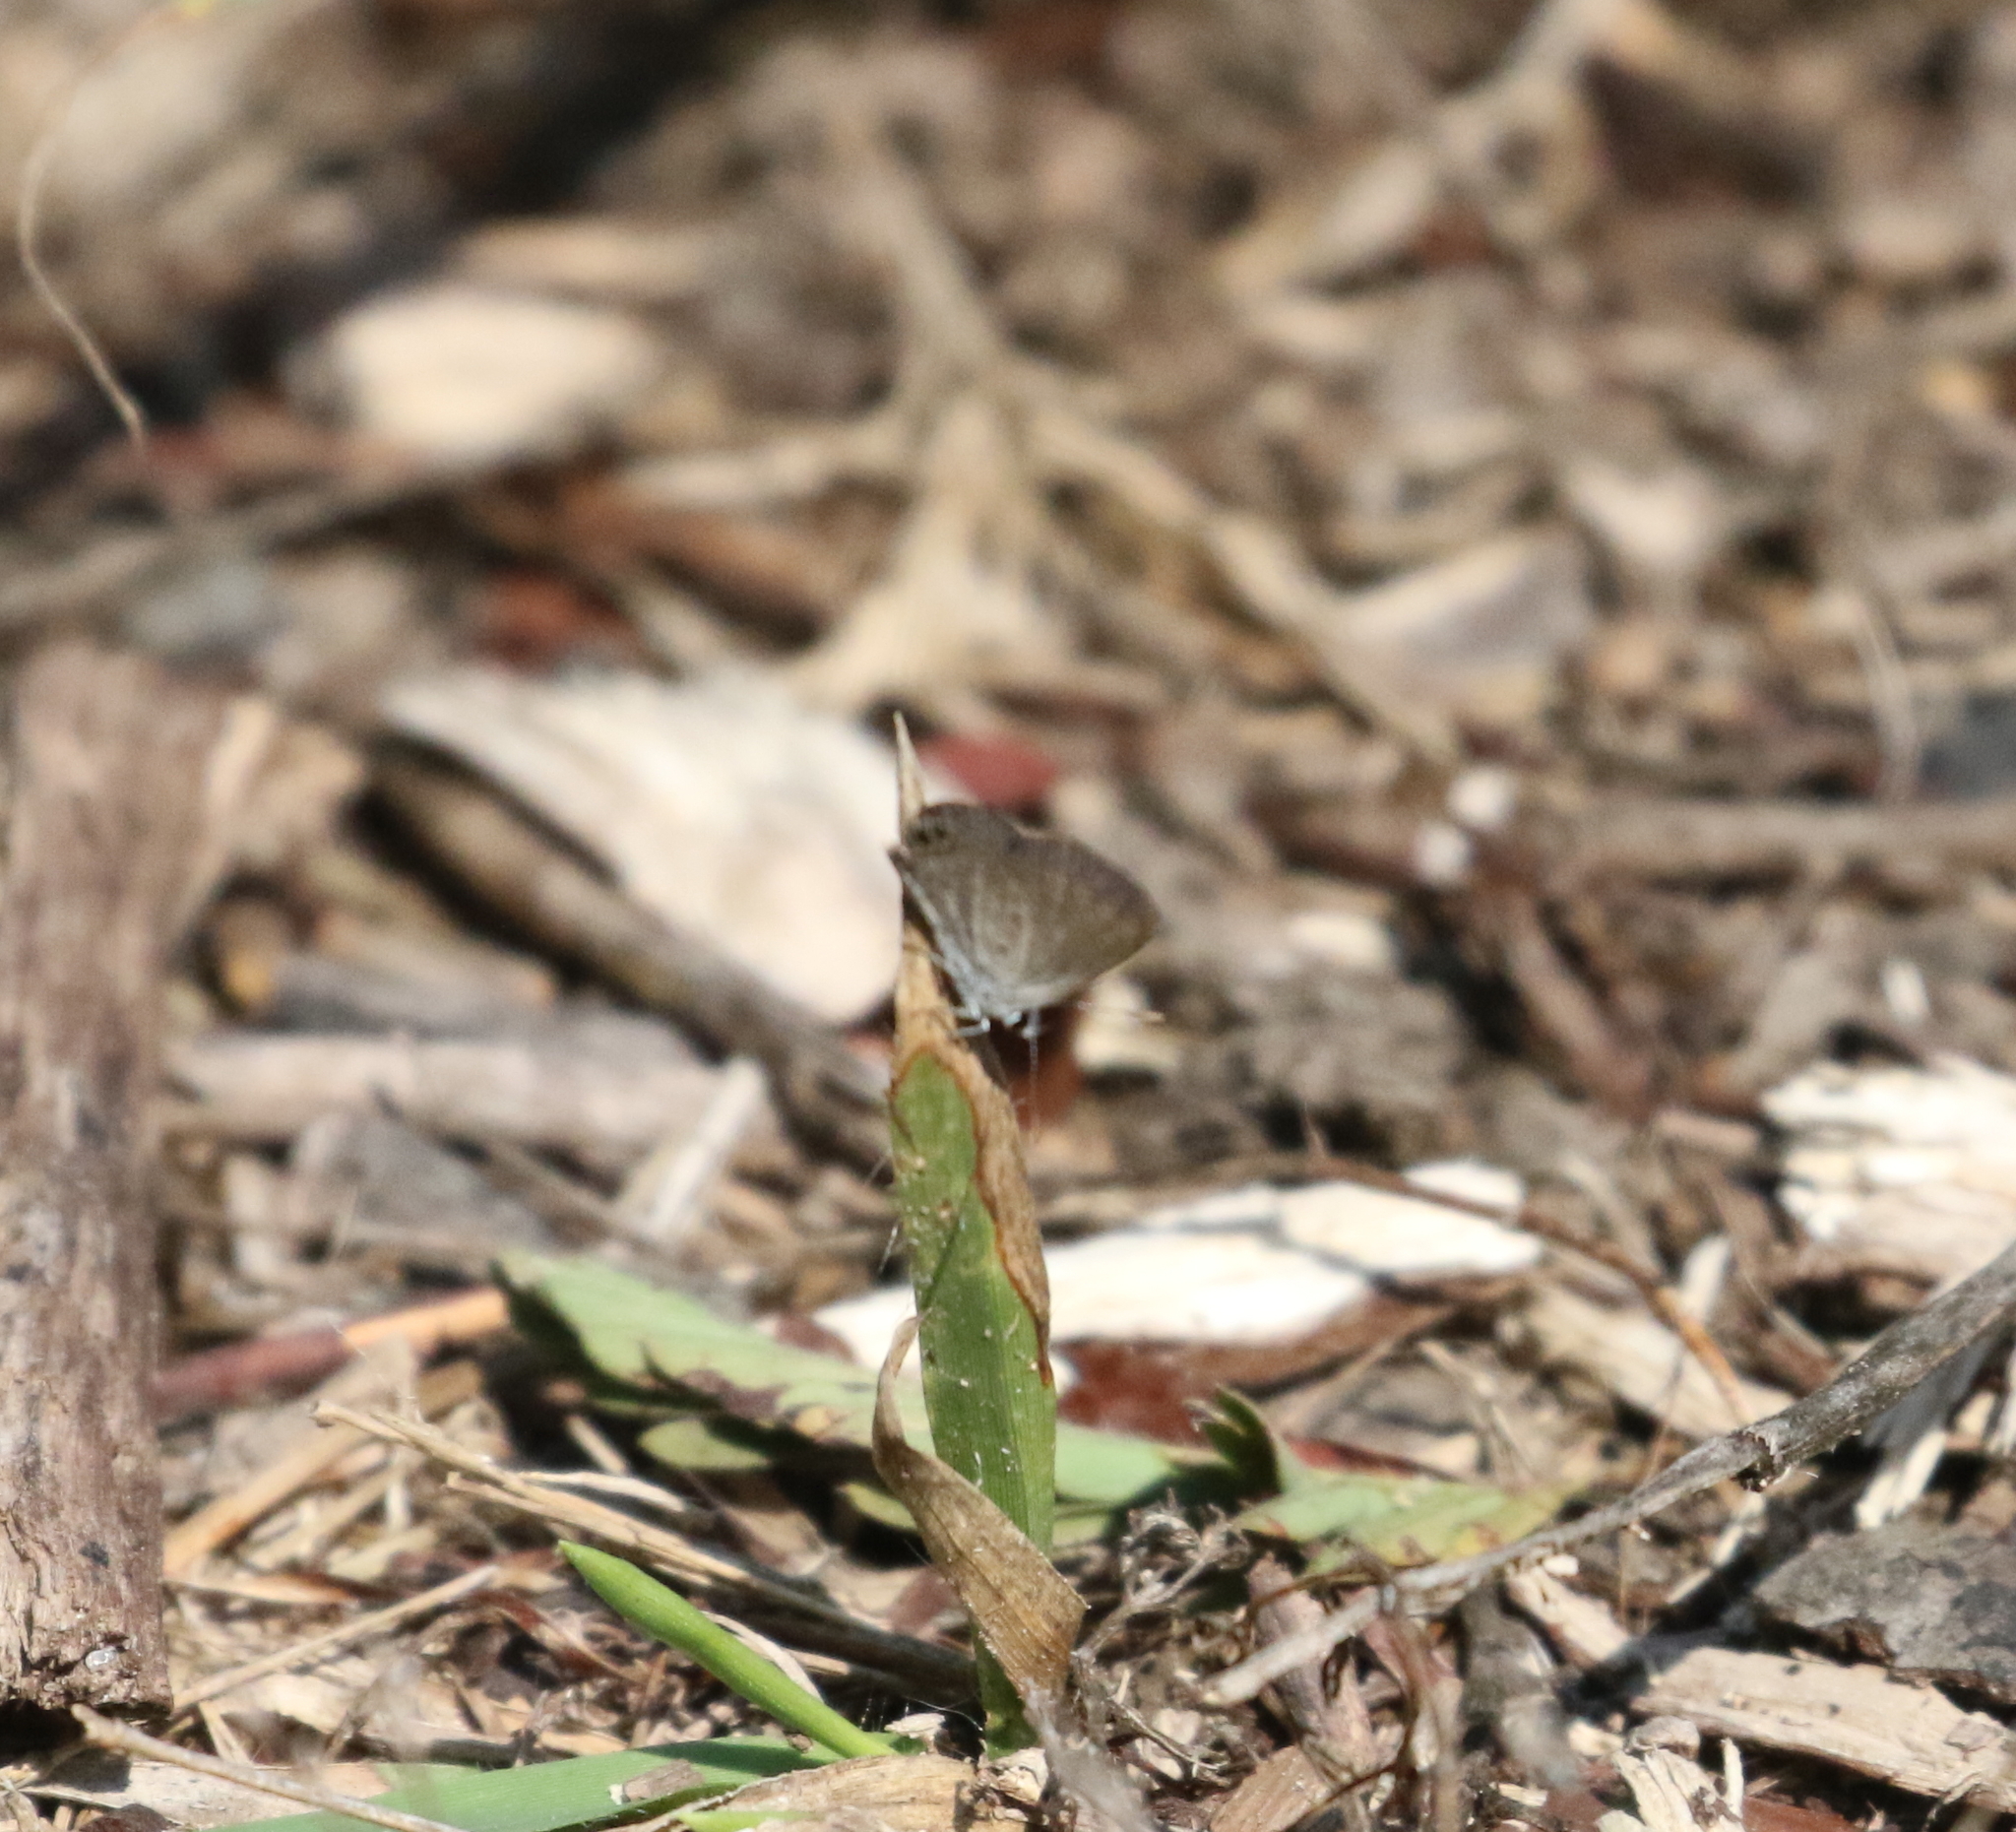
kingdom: Animalia
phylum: Arthropoda
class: Insecta
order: Lepidoptera
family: Lycaenidae
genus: Hemiargus
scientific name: Hemiargus ceraunus
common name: Ceraunus blue
